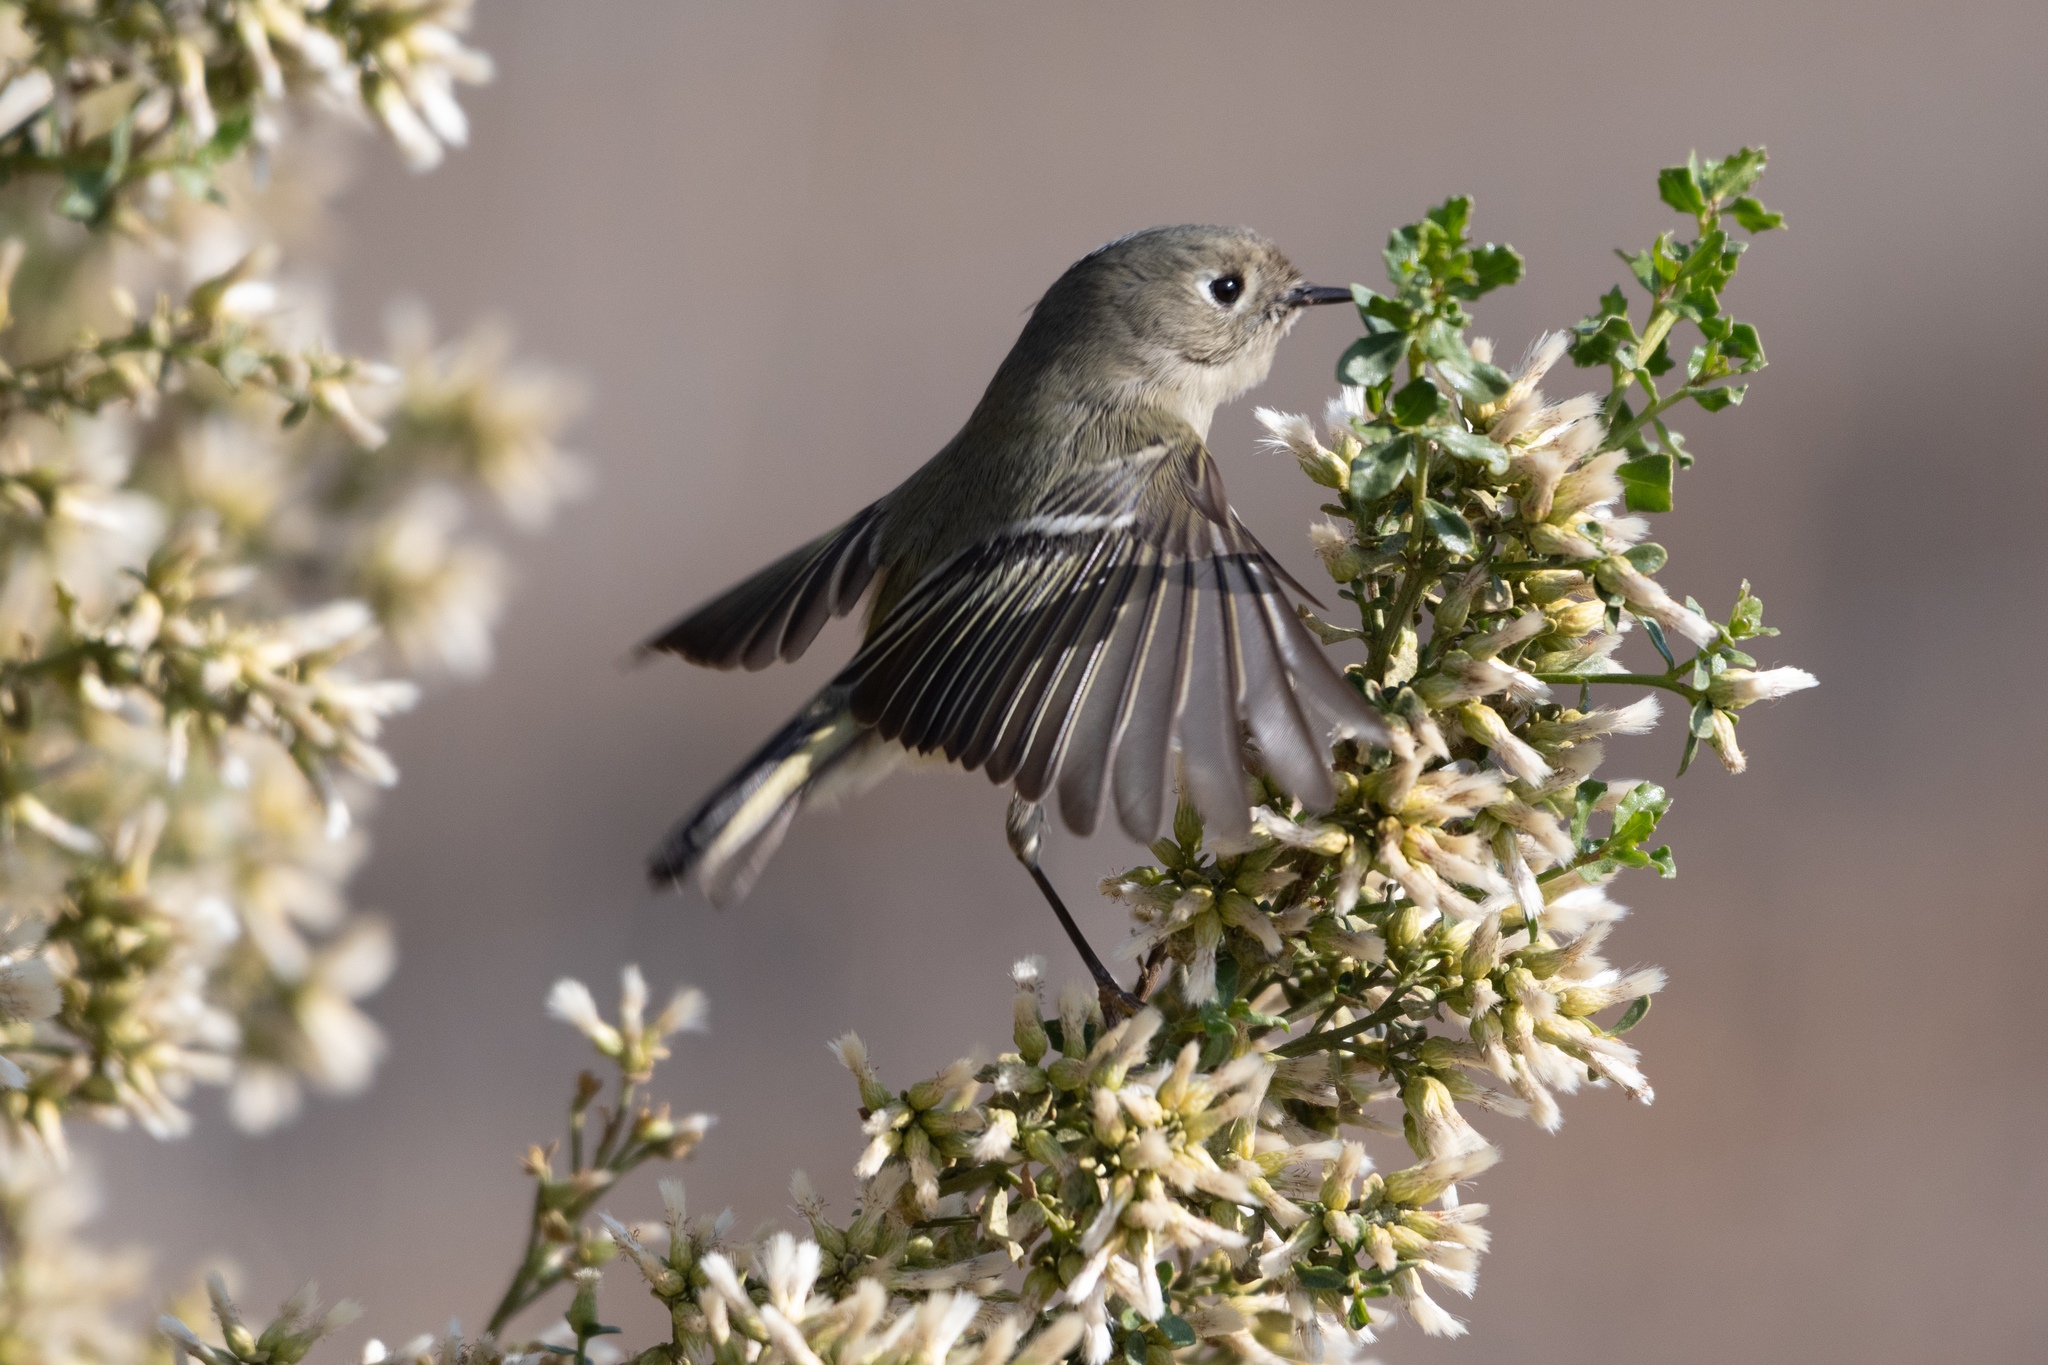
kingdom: Animalia
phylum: Chordata
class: Aves
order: Passeriformes
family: Regulidae
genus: Regulus
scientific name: Regulus calendula
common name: Ruby-crowned kinglet
